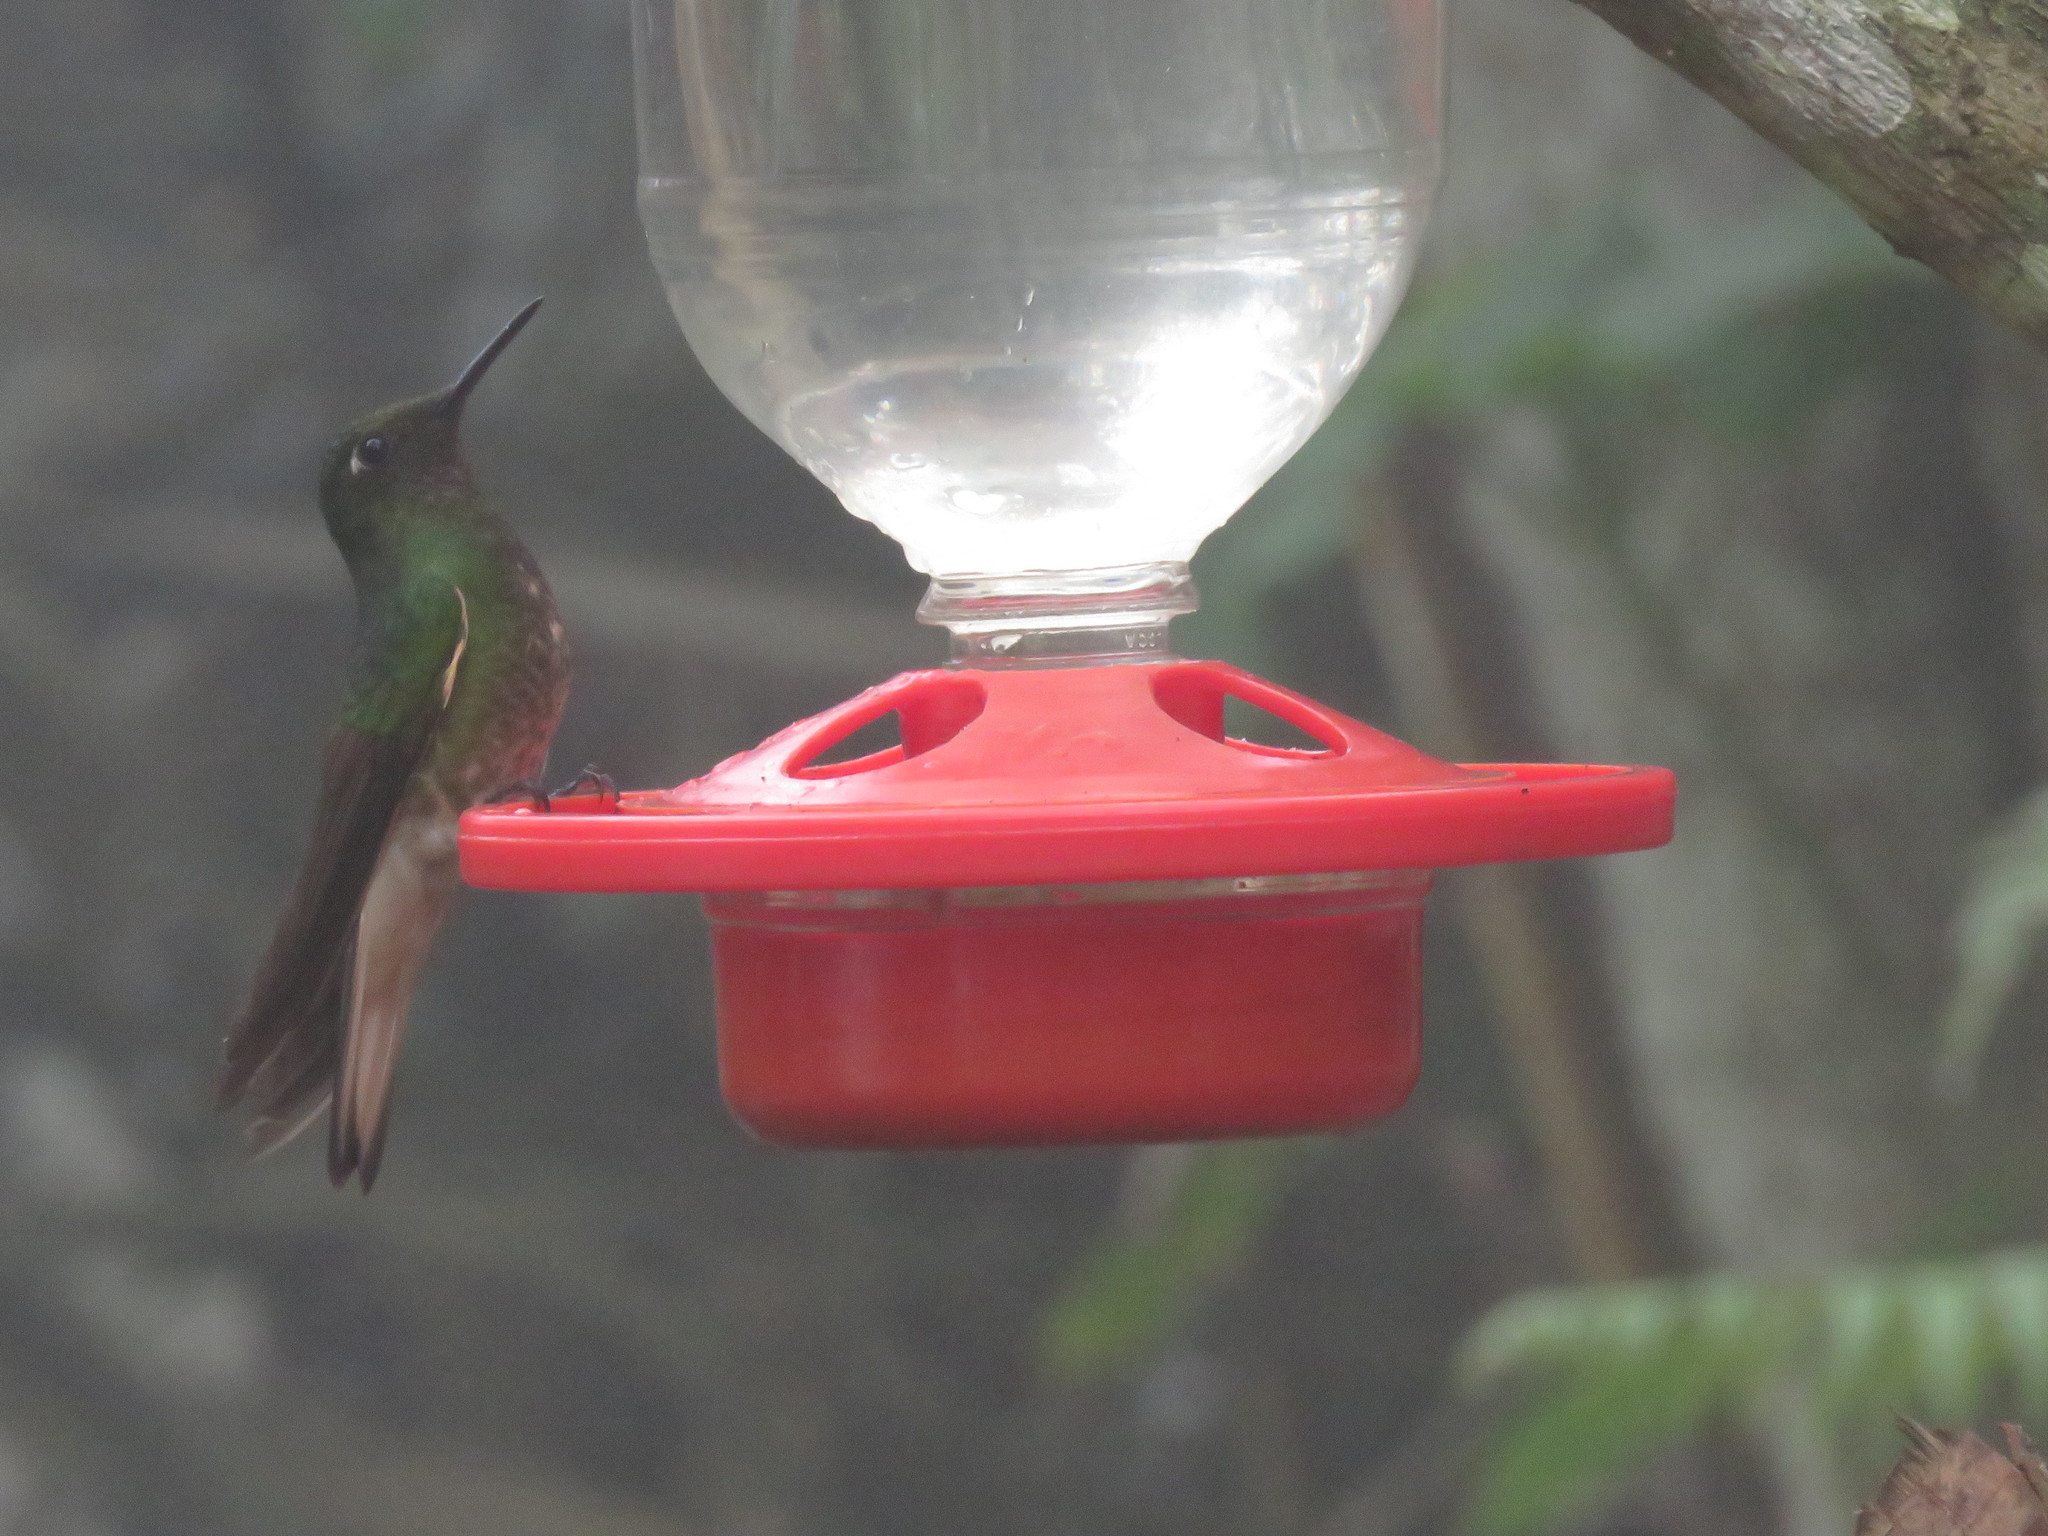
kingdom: Animalia
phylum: Chordata
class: Aves
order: Apodiformes
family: Trochilidae
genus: Boissonneaua
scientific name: Boissonneaua flavescens
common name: Buff-tailed coronet
